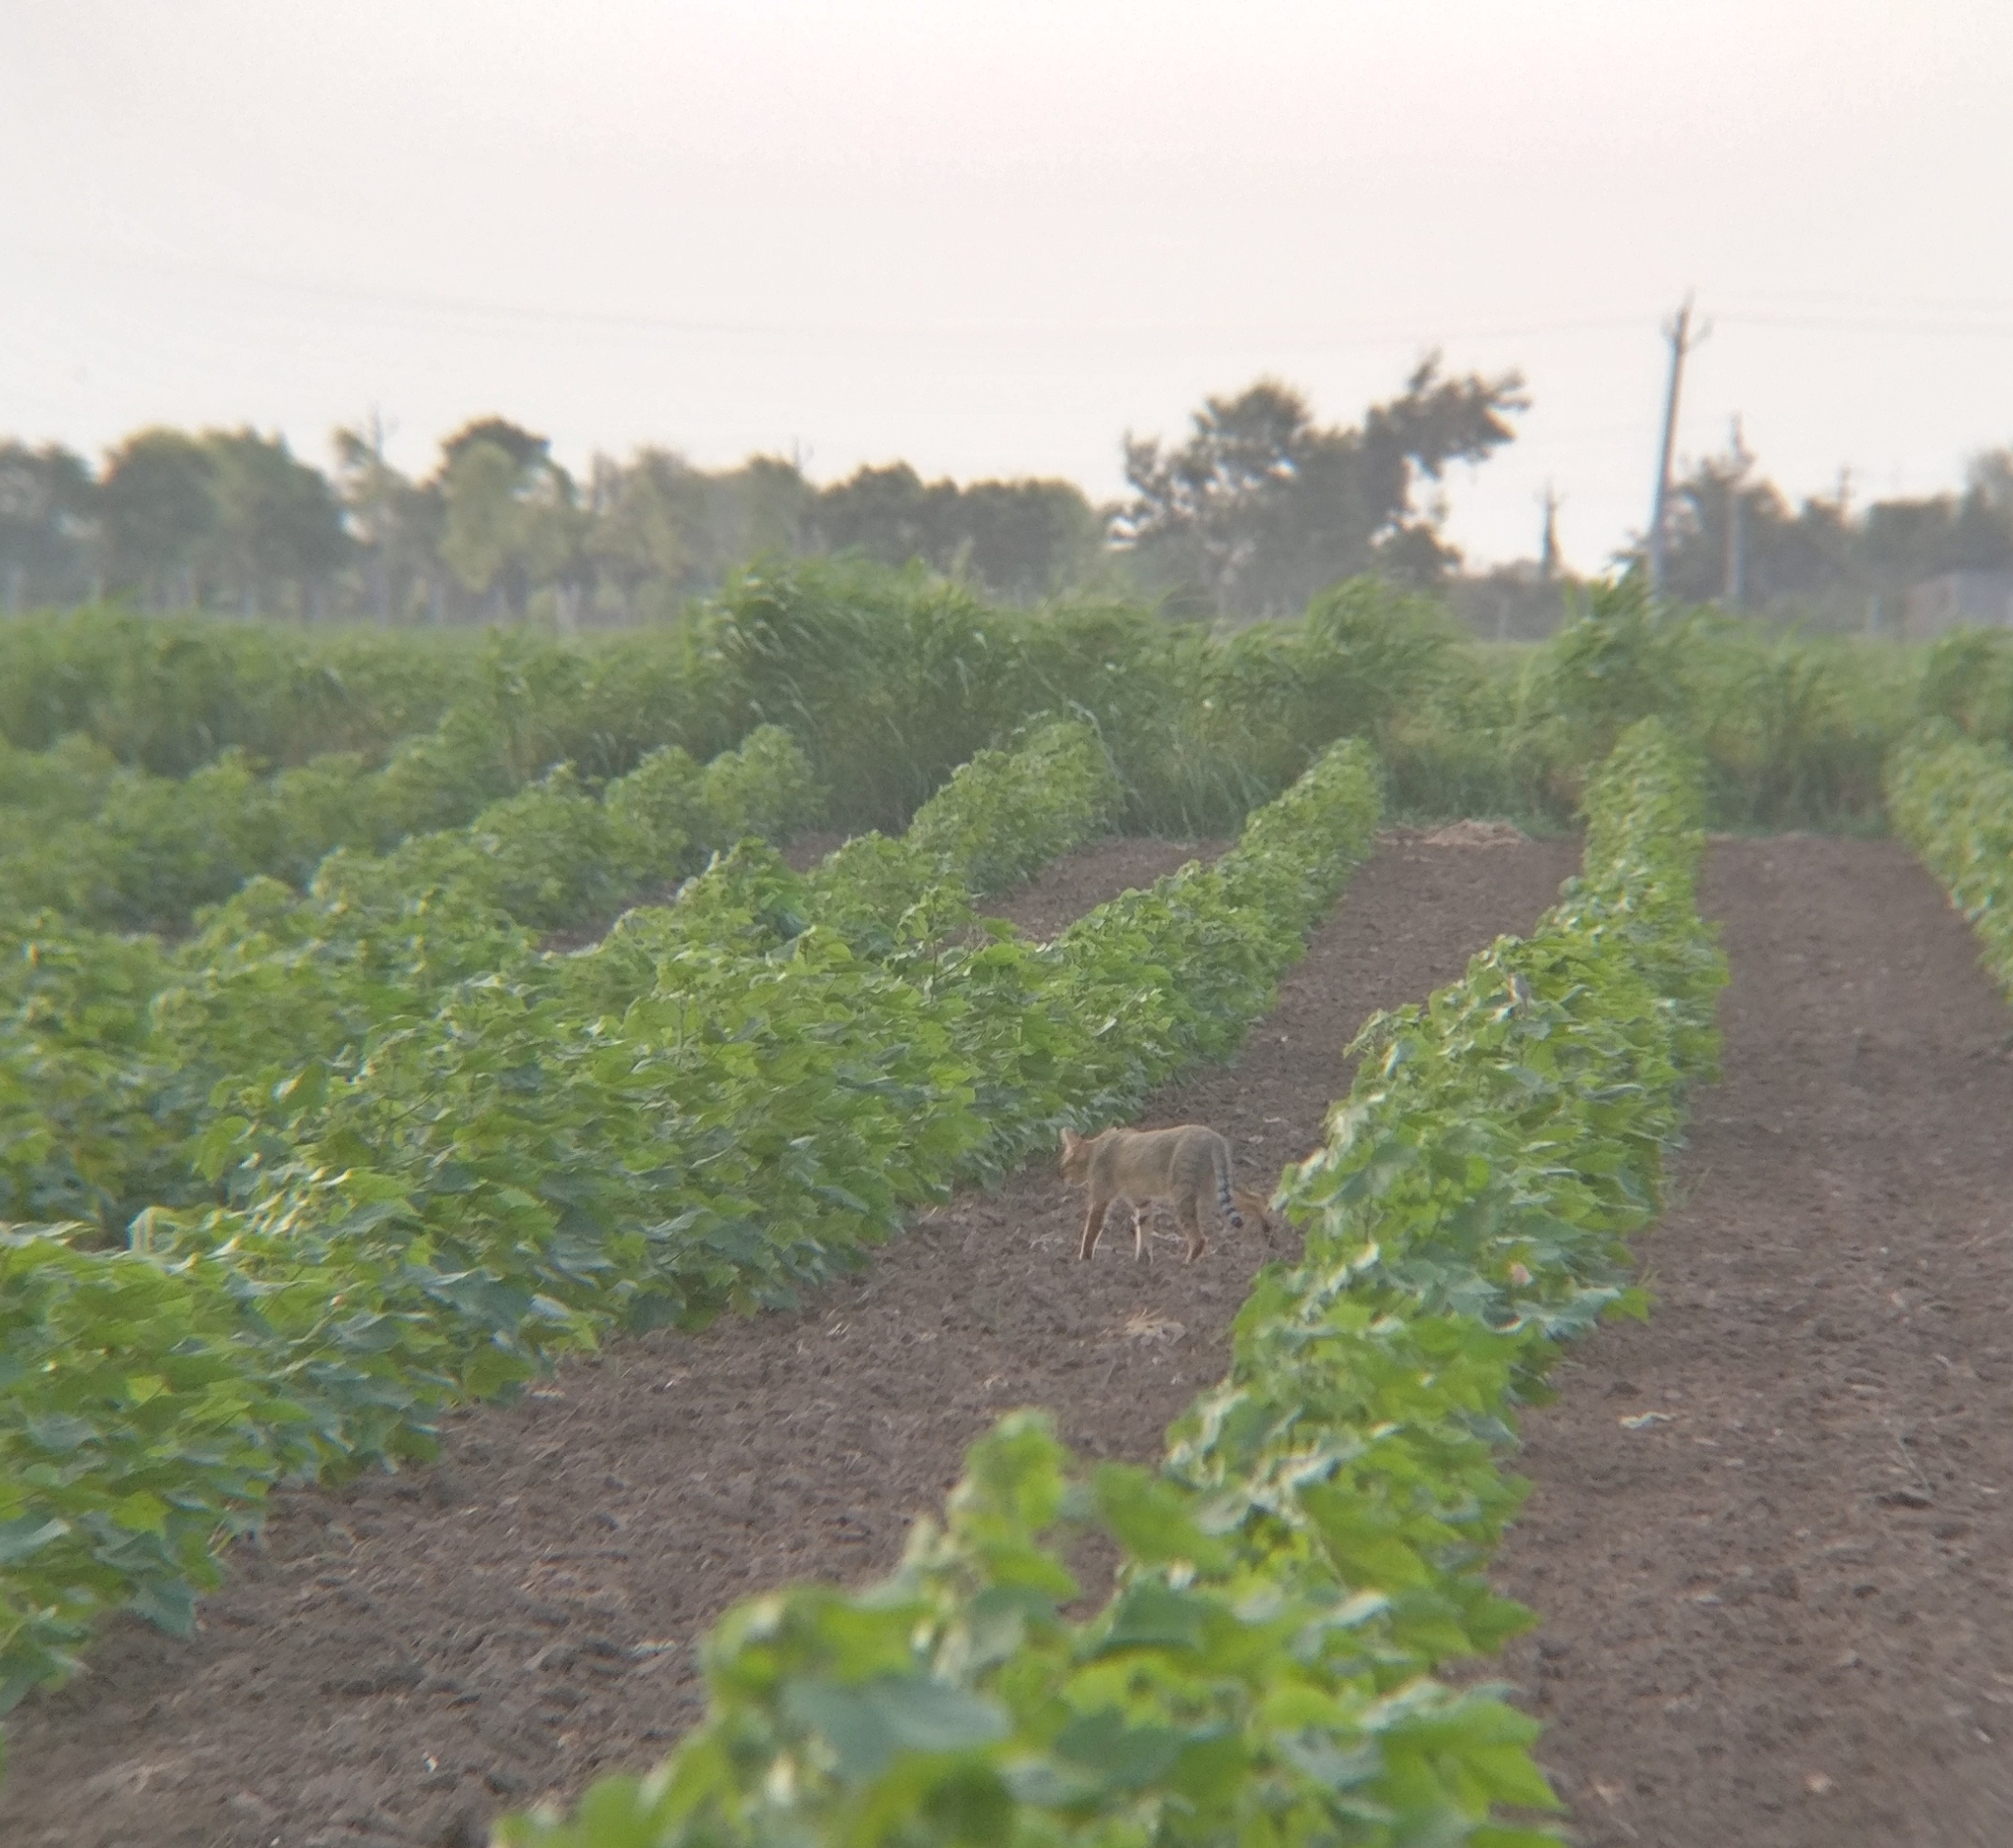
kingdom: Animalia
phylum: Chordata
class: Mammalia
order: Carnivora
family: Felidae
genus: Felis
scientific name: Felis chaus
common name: Jungle cat
